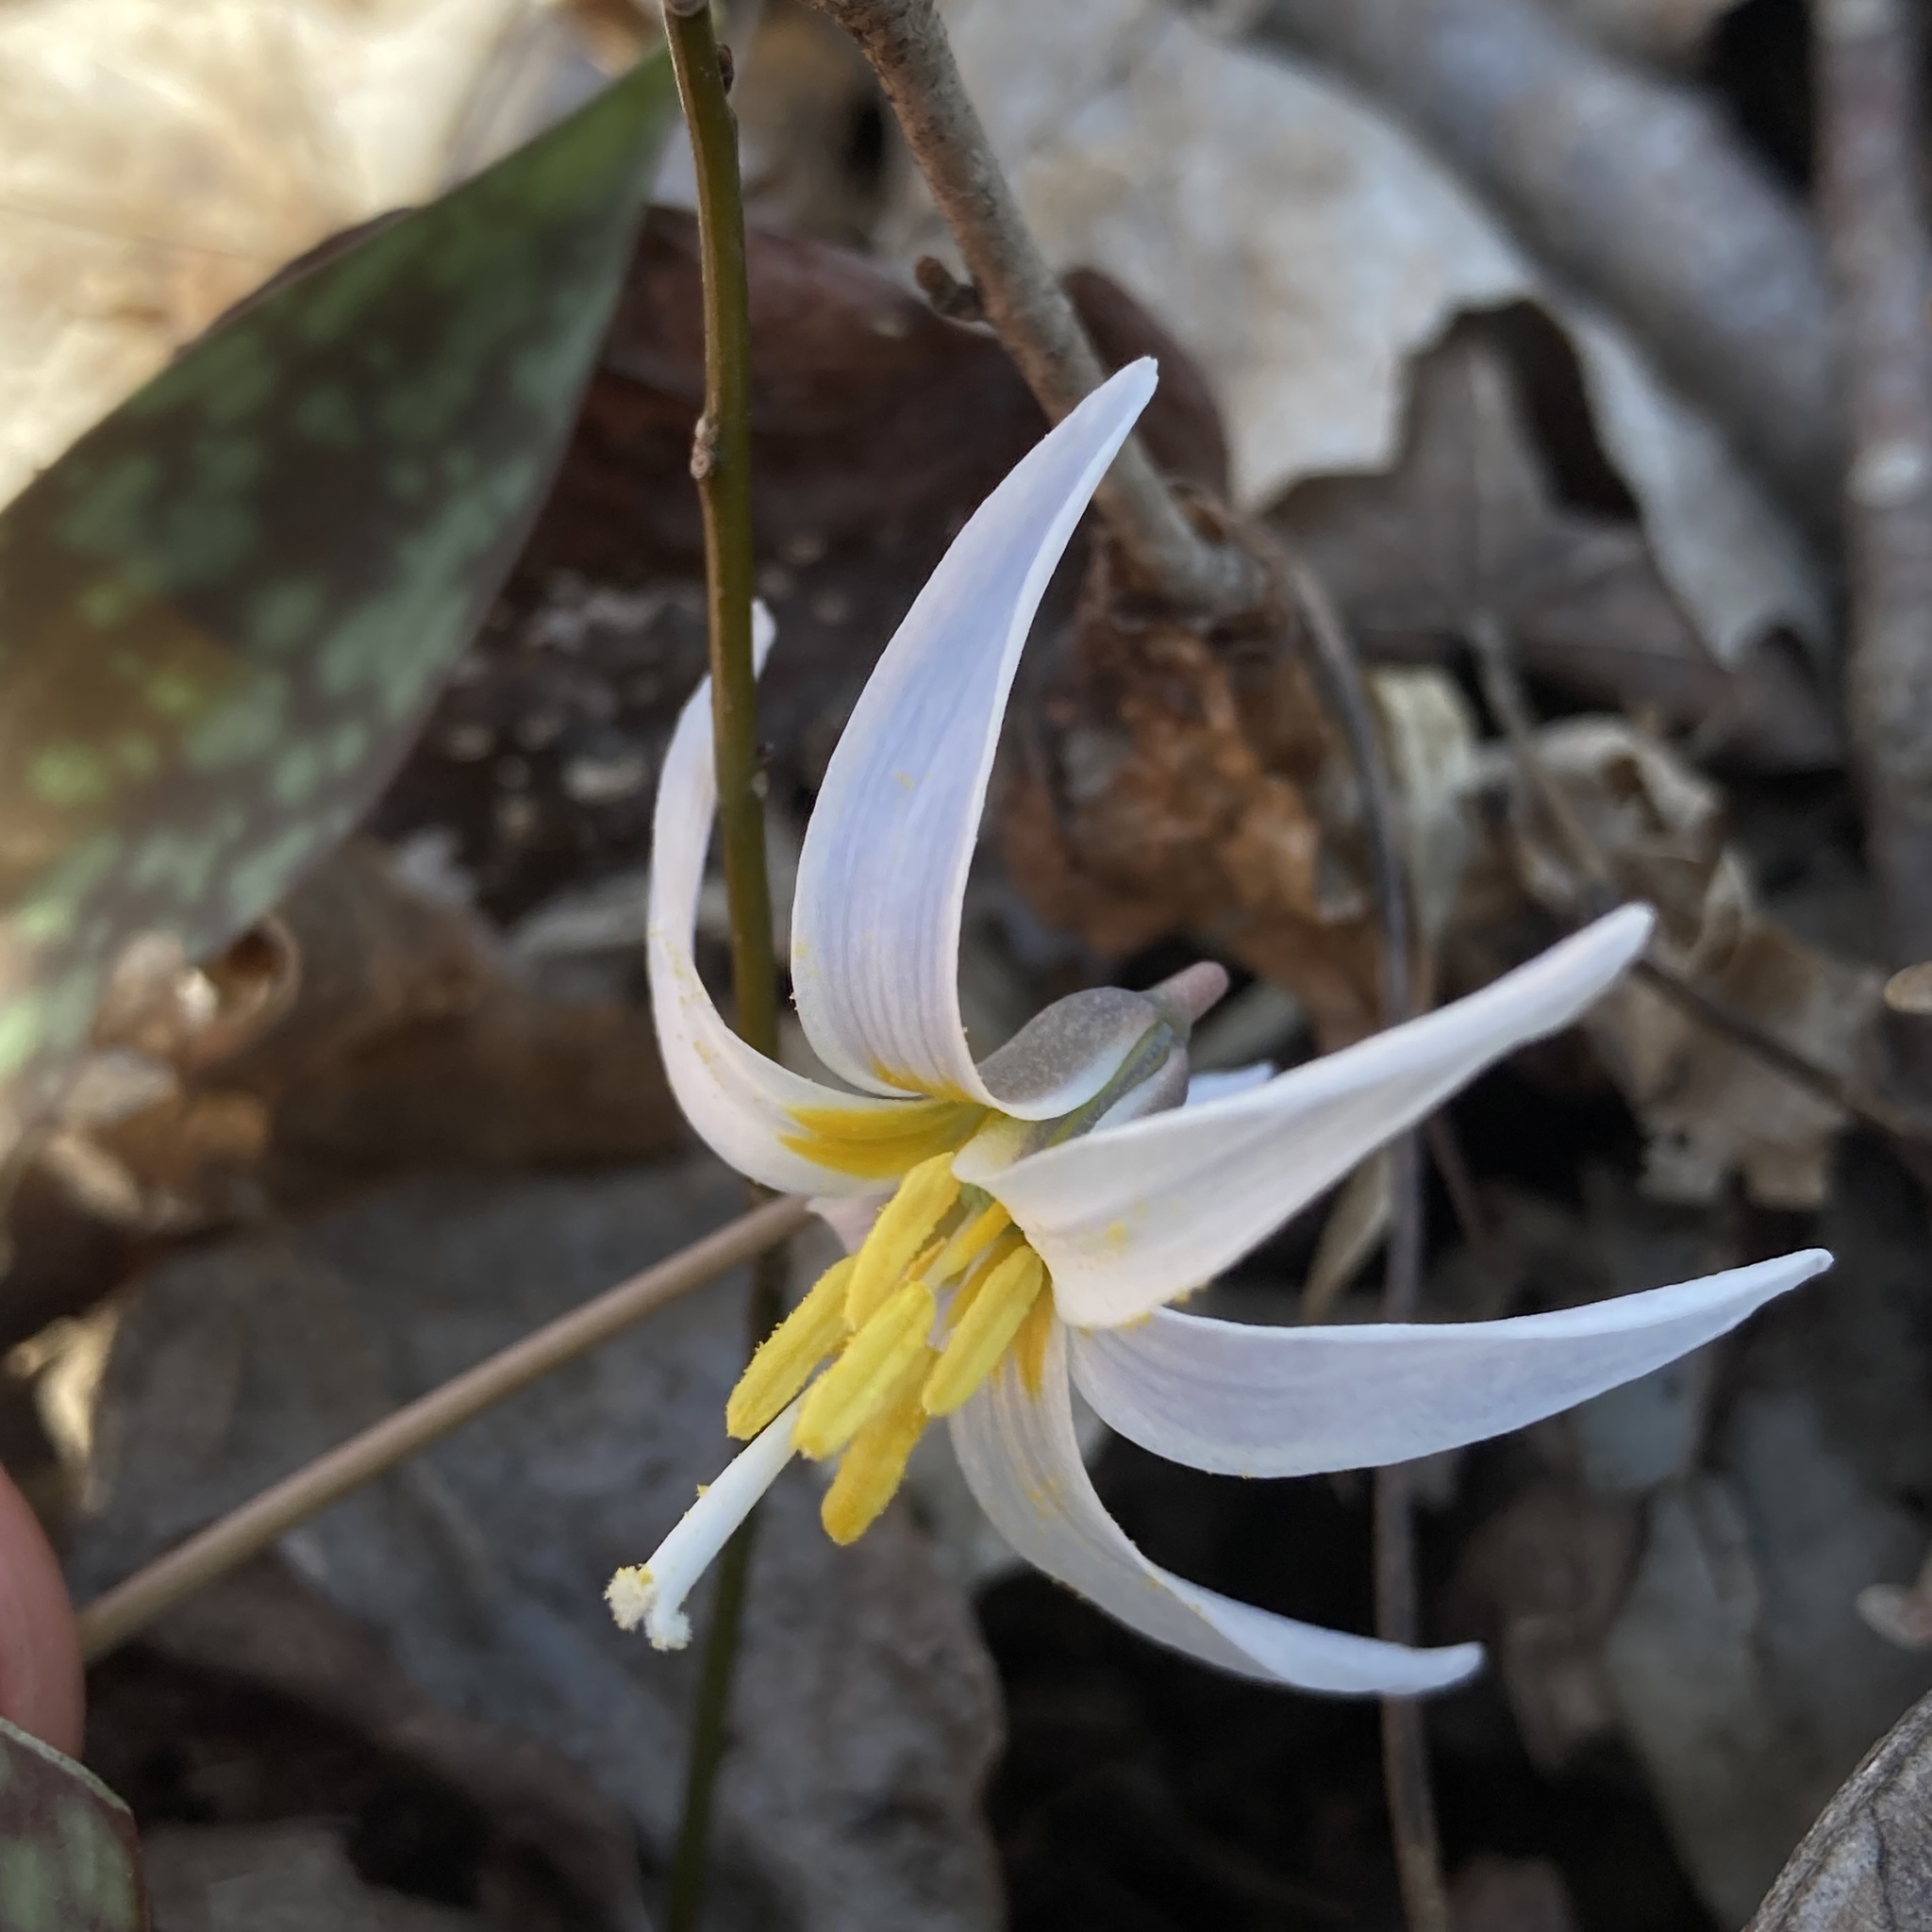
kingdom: Plantae
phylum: Tracheophyta
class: Liliopsida
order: Liliales
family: Liliaceae
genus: Erythronium
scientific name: Erythronium albidum
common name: White trout-lily
